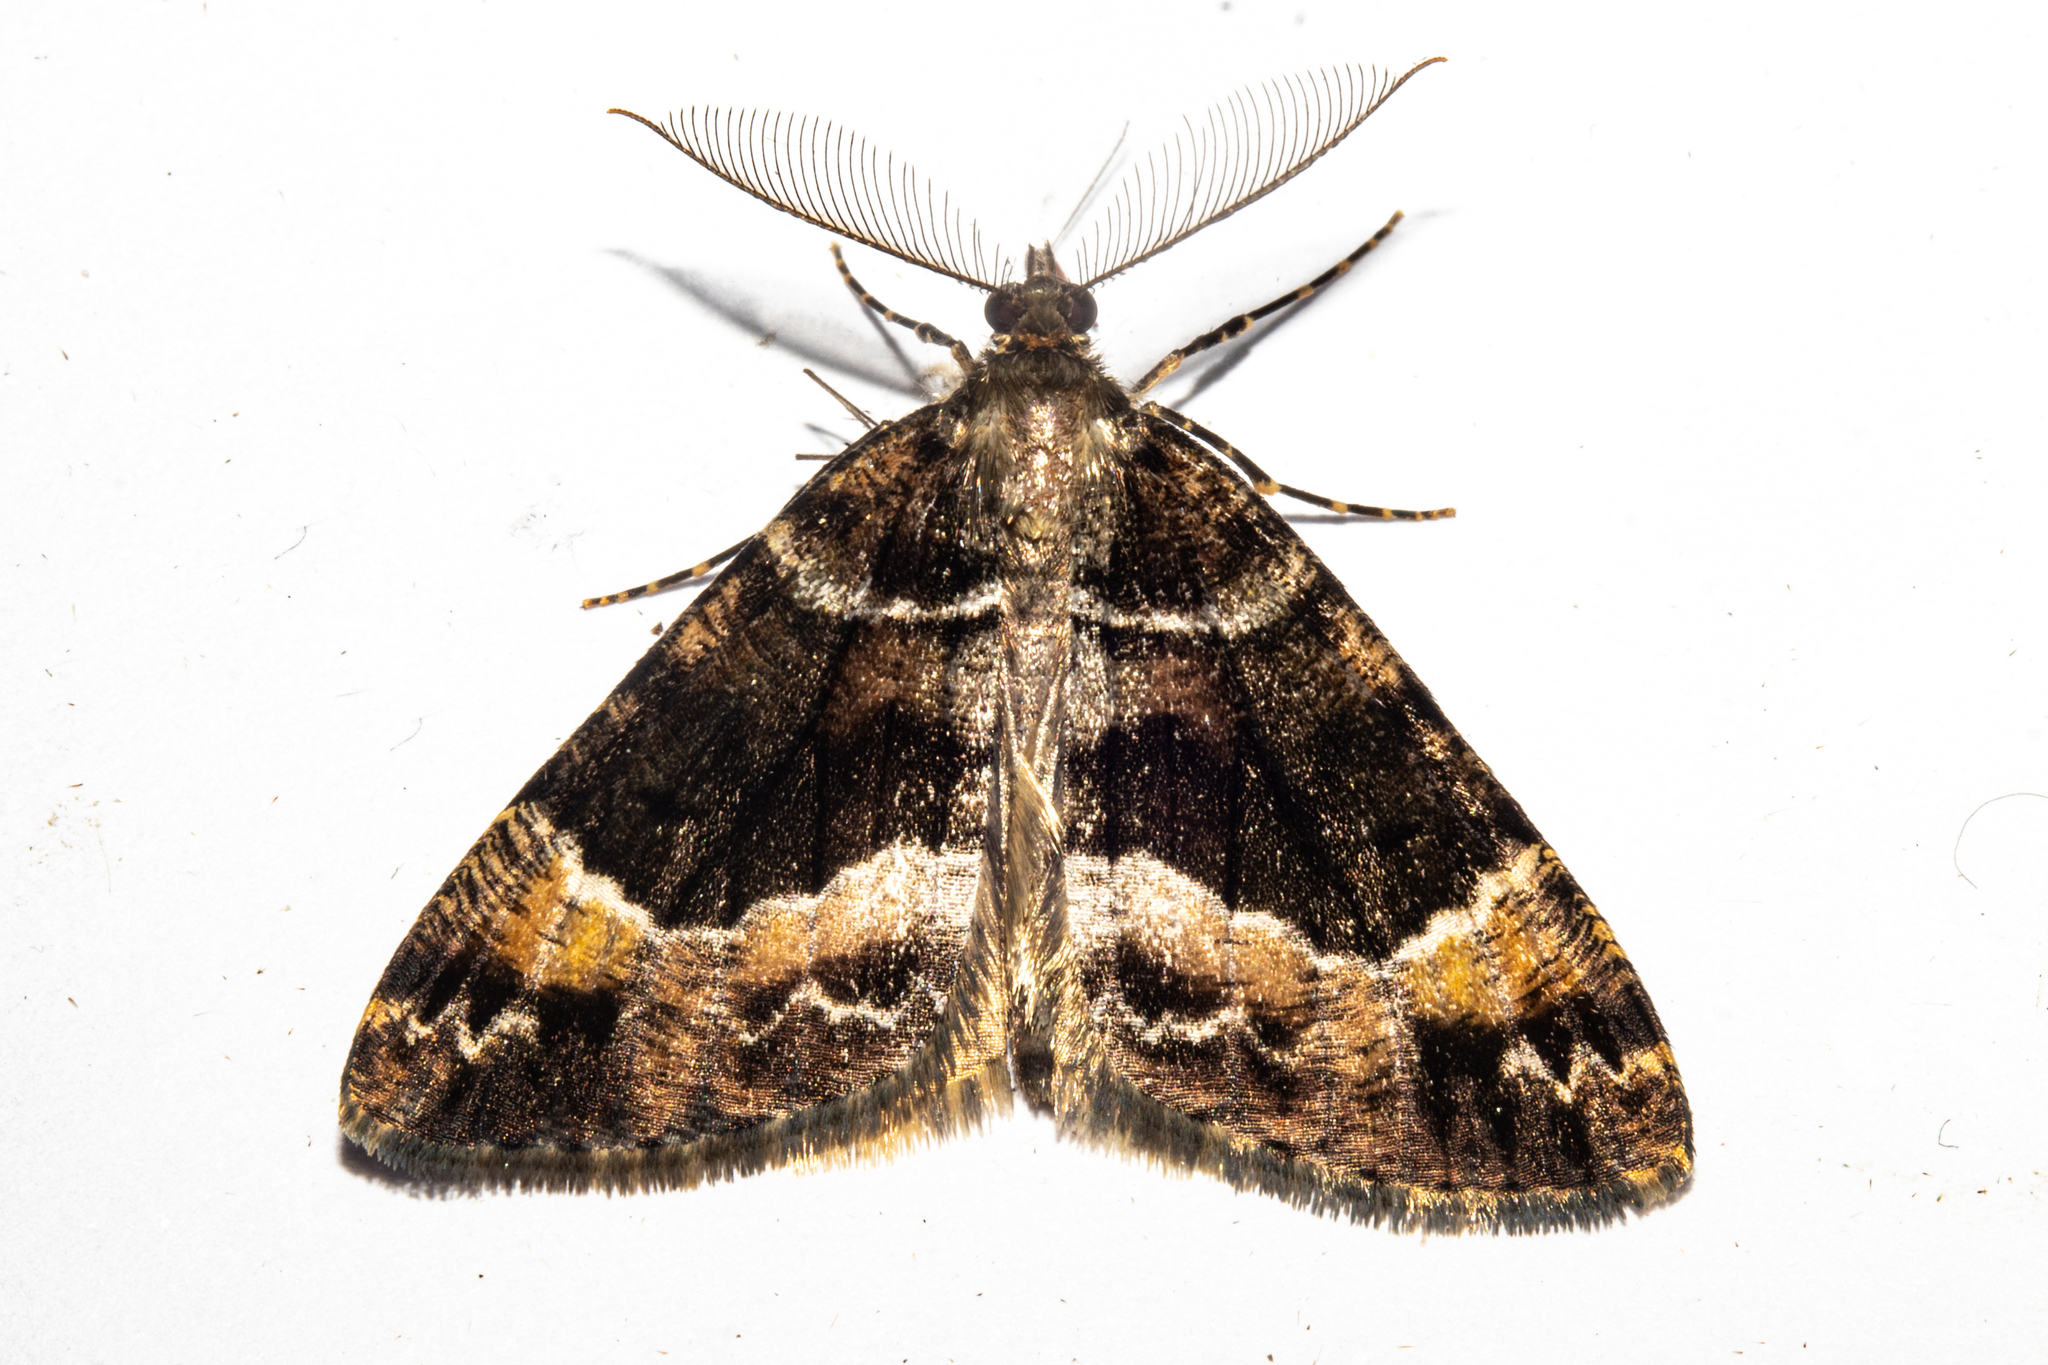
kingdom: Animalia
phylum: Arthropoda
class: Insecta
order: Lepidoptera
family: Geometridae
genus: Pseudocoremia
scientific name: Pseudocoremia productata
